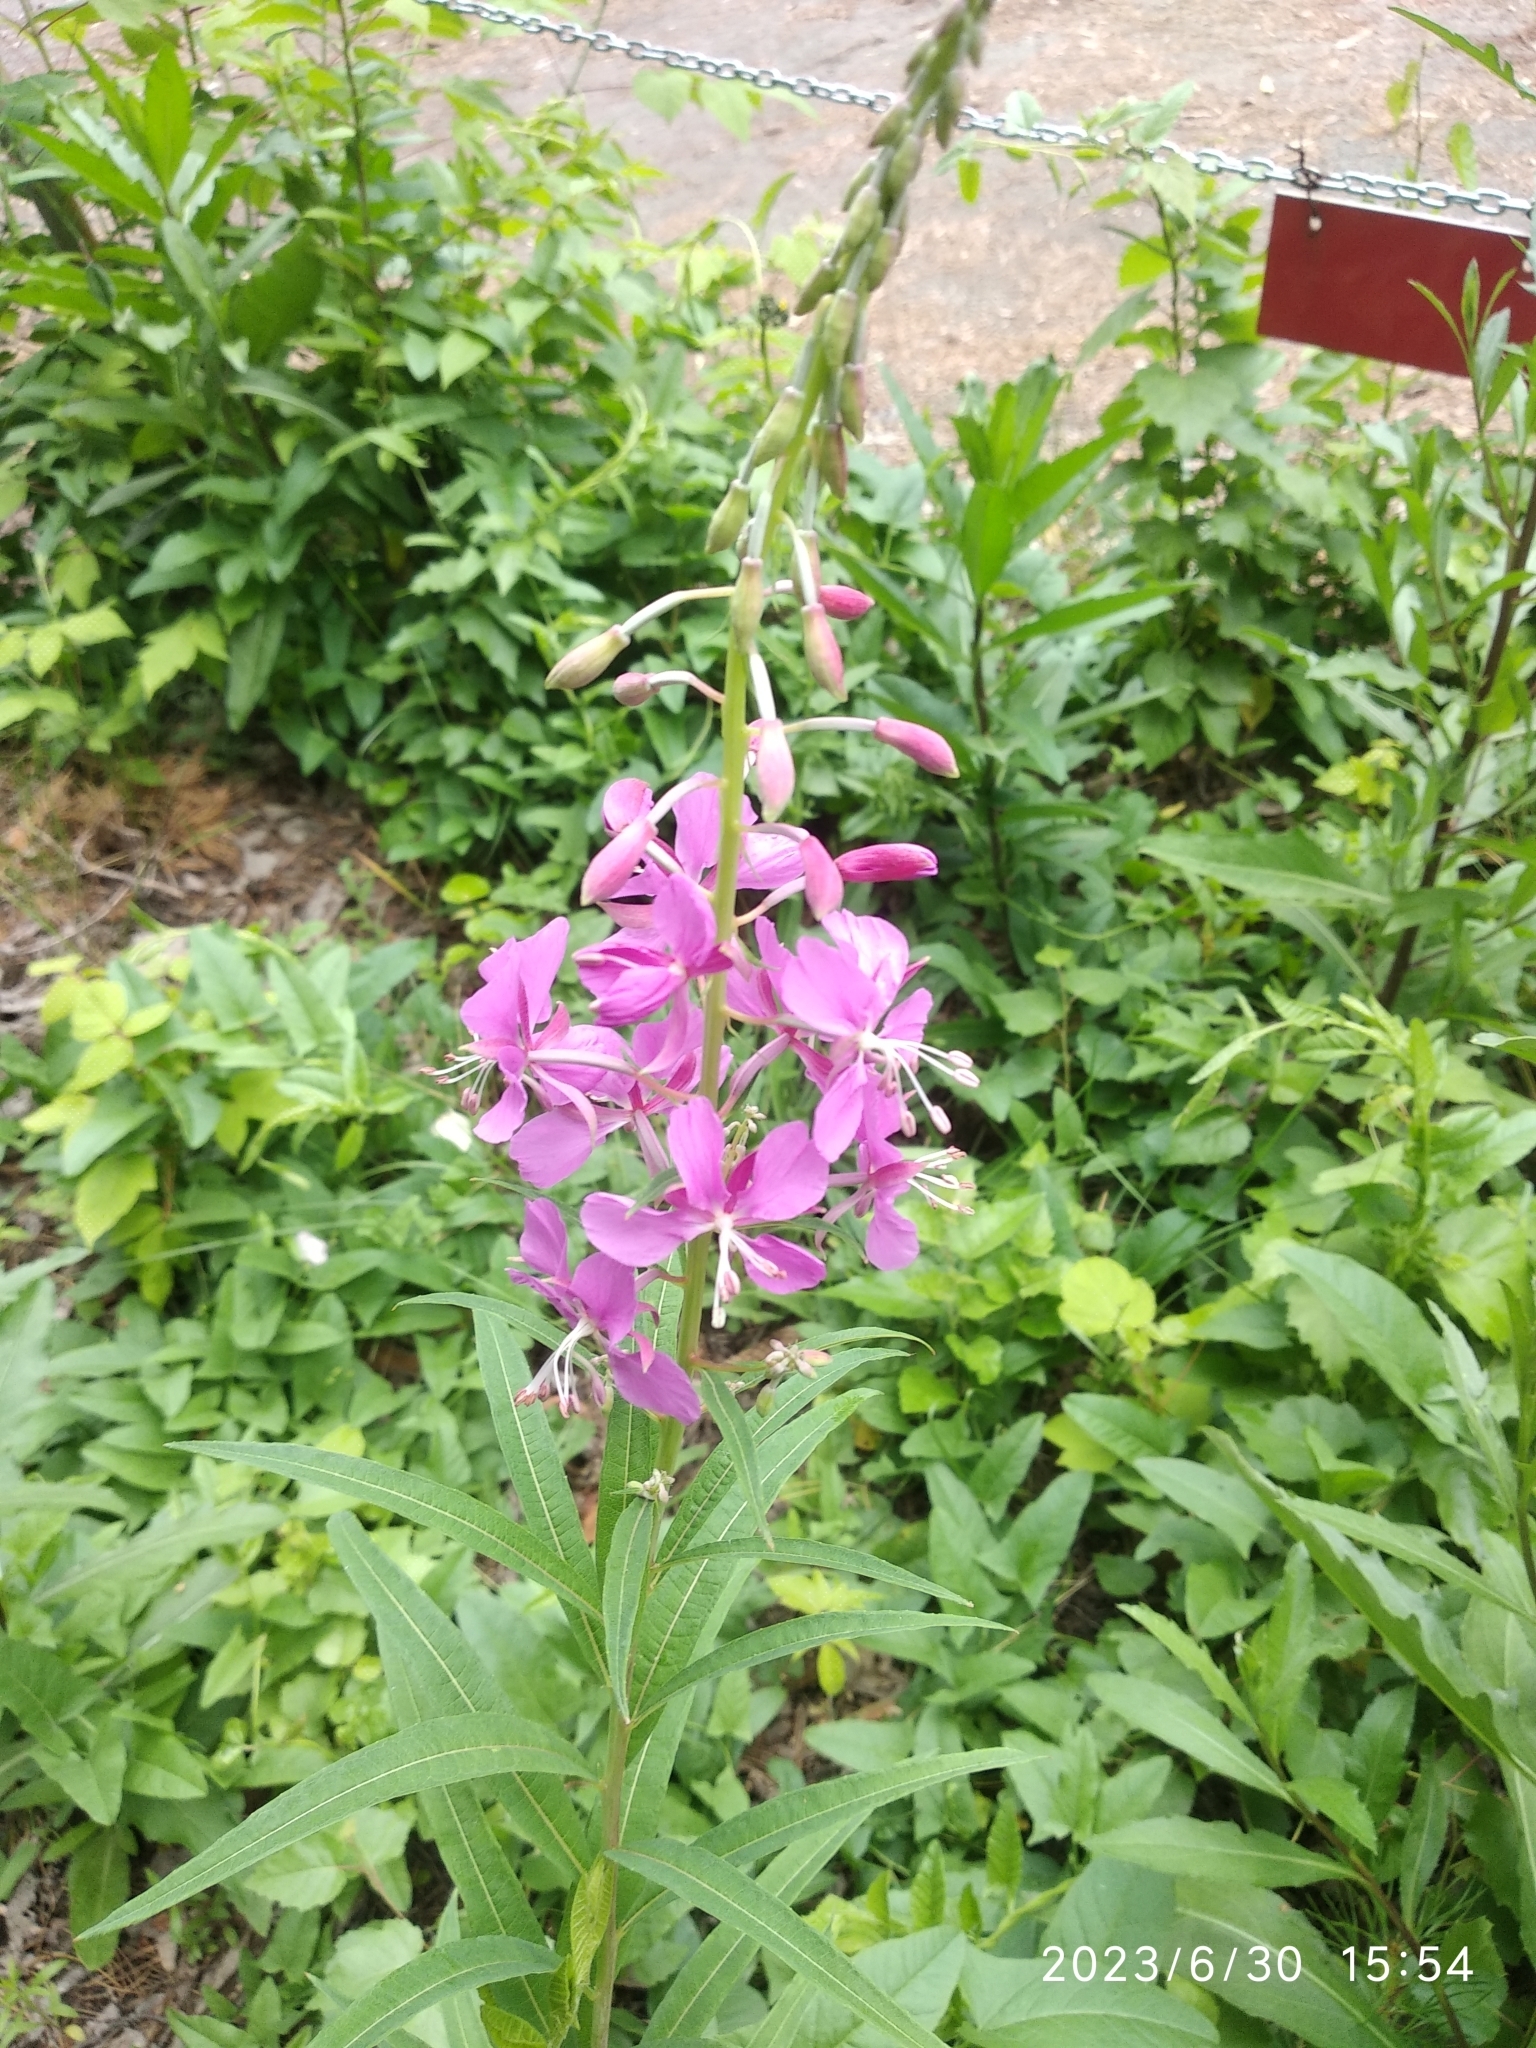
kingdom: Plantae
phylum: Tracheophyta
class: Magnoliopsida
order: Myrtales
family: Onagraceae
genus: Chamaenerion
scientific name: Chamaenerion angustifolium
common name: Fireweed
